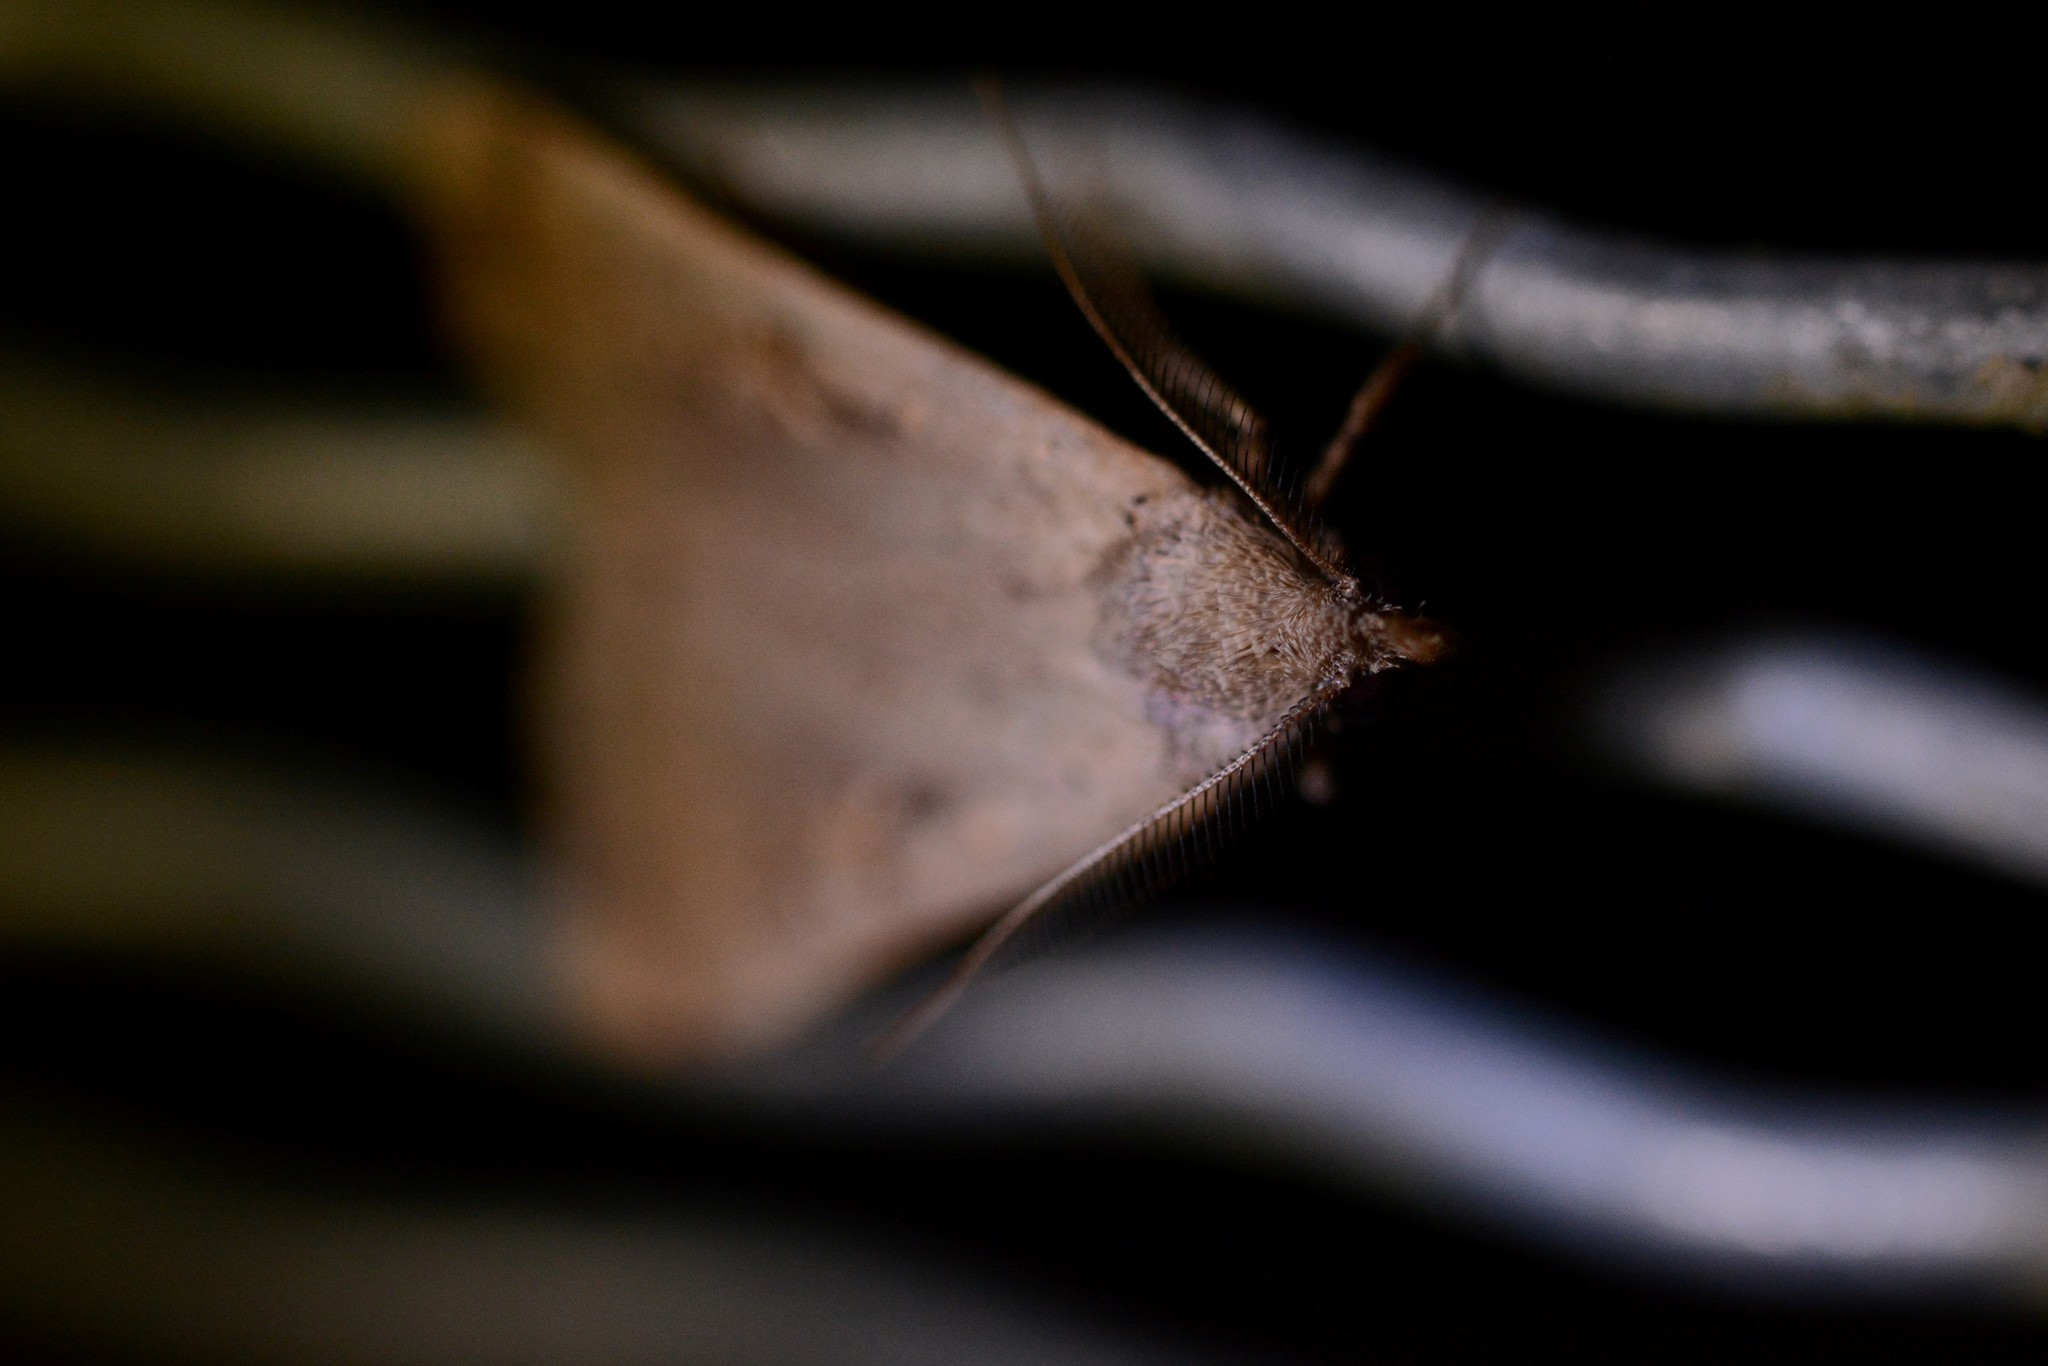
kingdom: Animalia
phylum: Arthropoda
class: Insecta
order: Lepidoptera
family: Erebidae
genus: Rhapsa
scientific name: Rhapsa scotosialis
